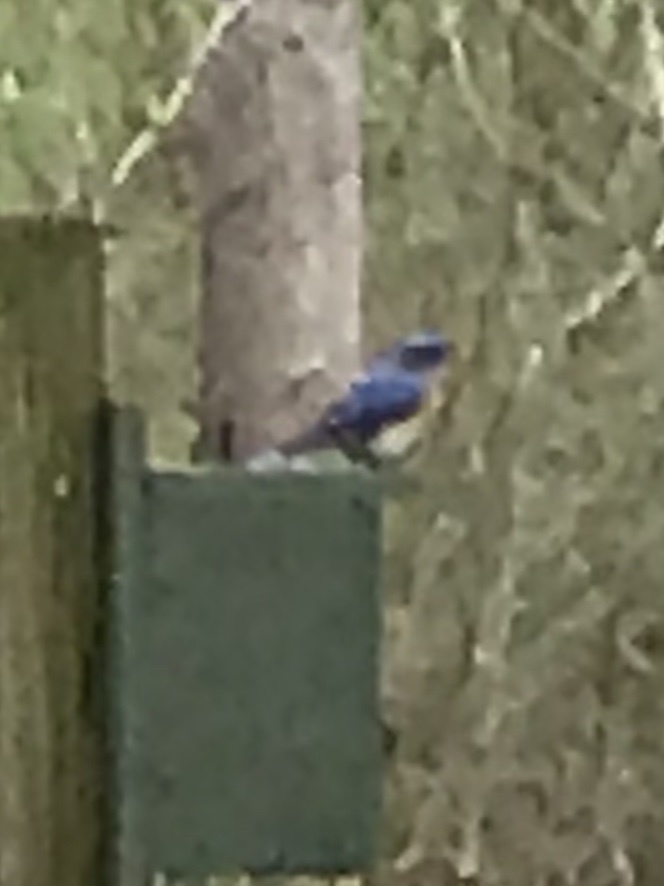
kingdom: Animalia
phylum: Chordata
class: Aves
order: Passeriformes
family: Turdidae
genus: Sialia
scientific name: Sialia sialis
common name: Eastern bluebird
